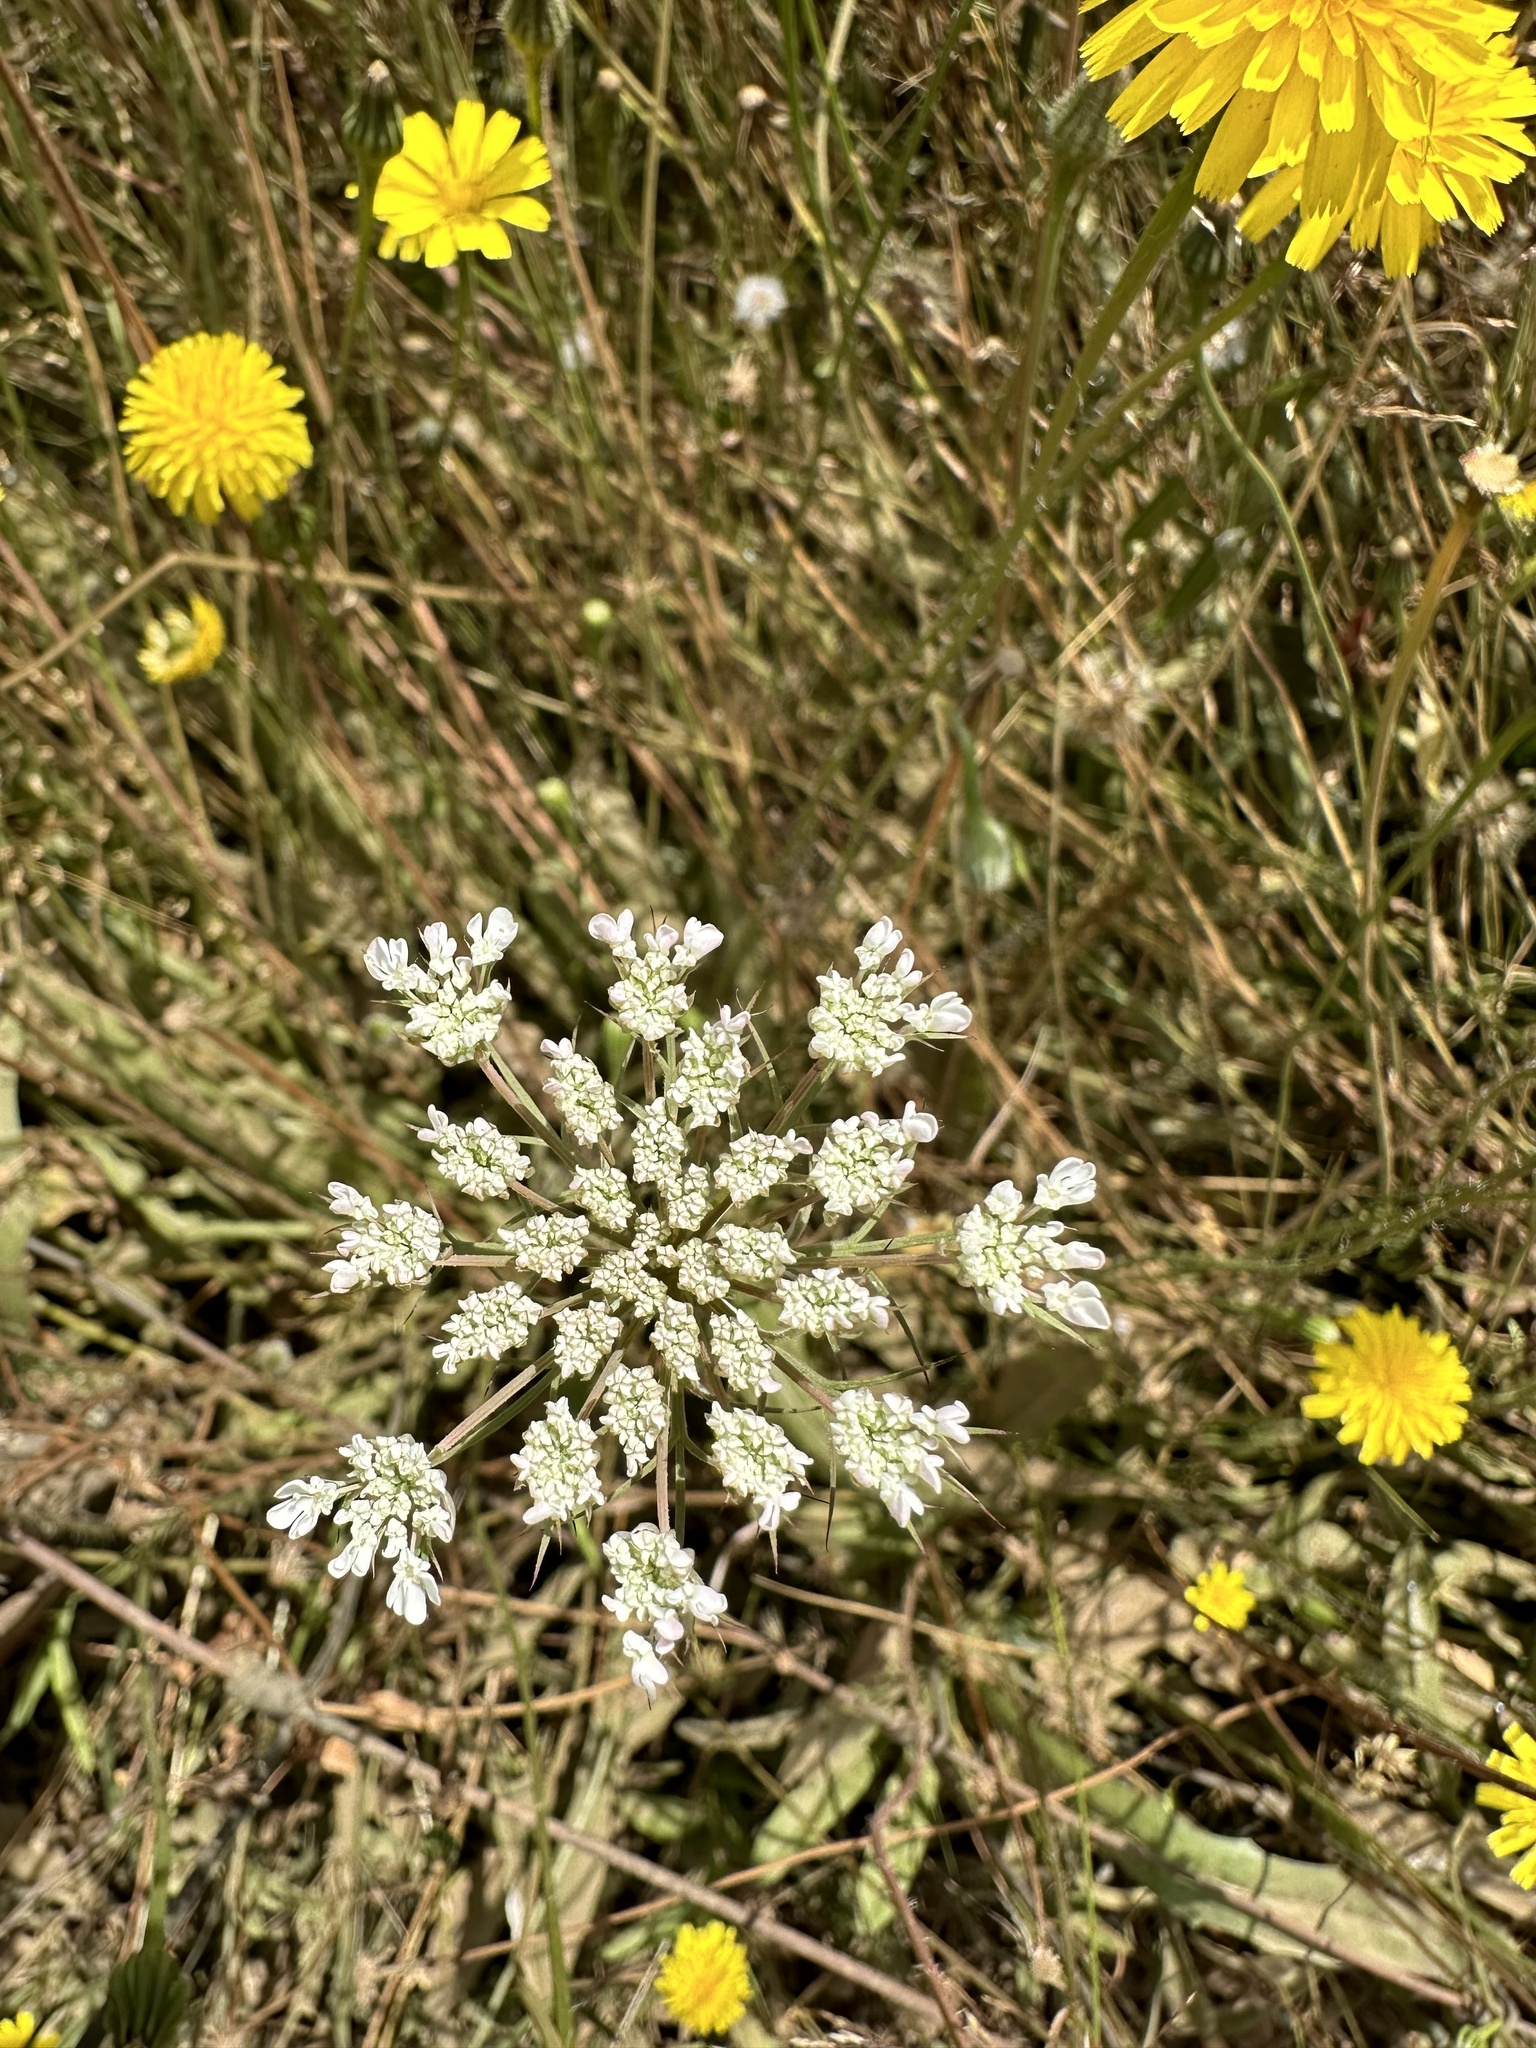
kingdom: Plantae
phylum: Tracheophyta
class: Magnoliopsida
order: Apiales
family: Apiaceae
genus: Daucus
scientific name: Daucus carota
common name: Wild carrot
